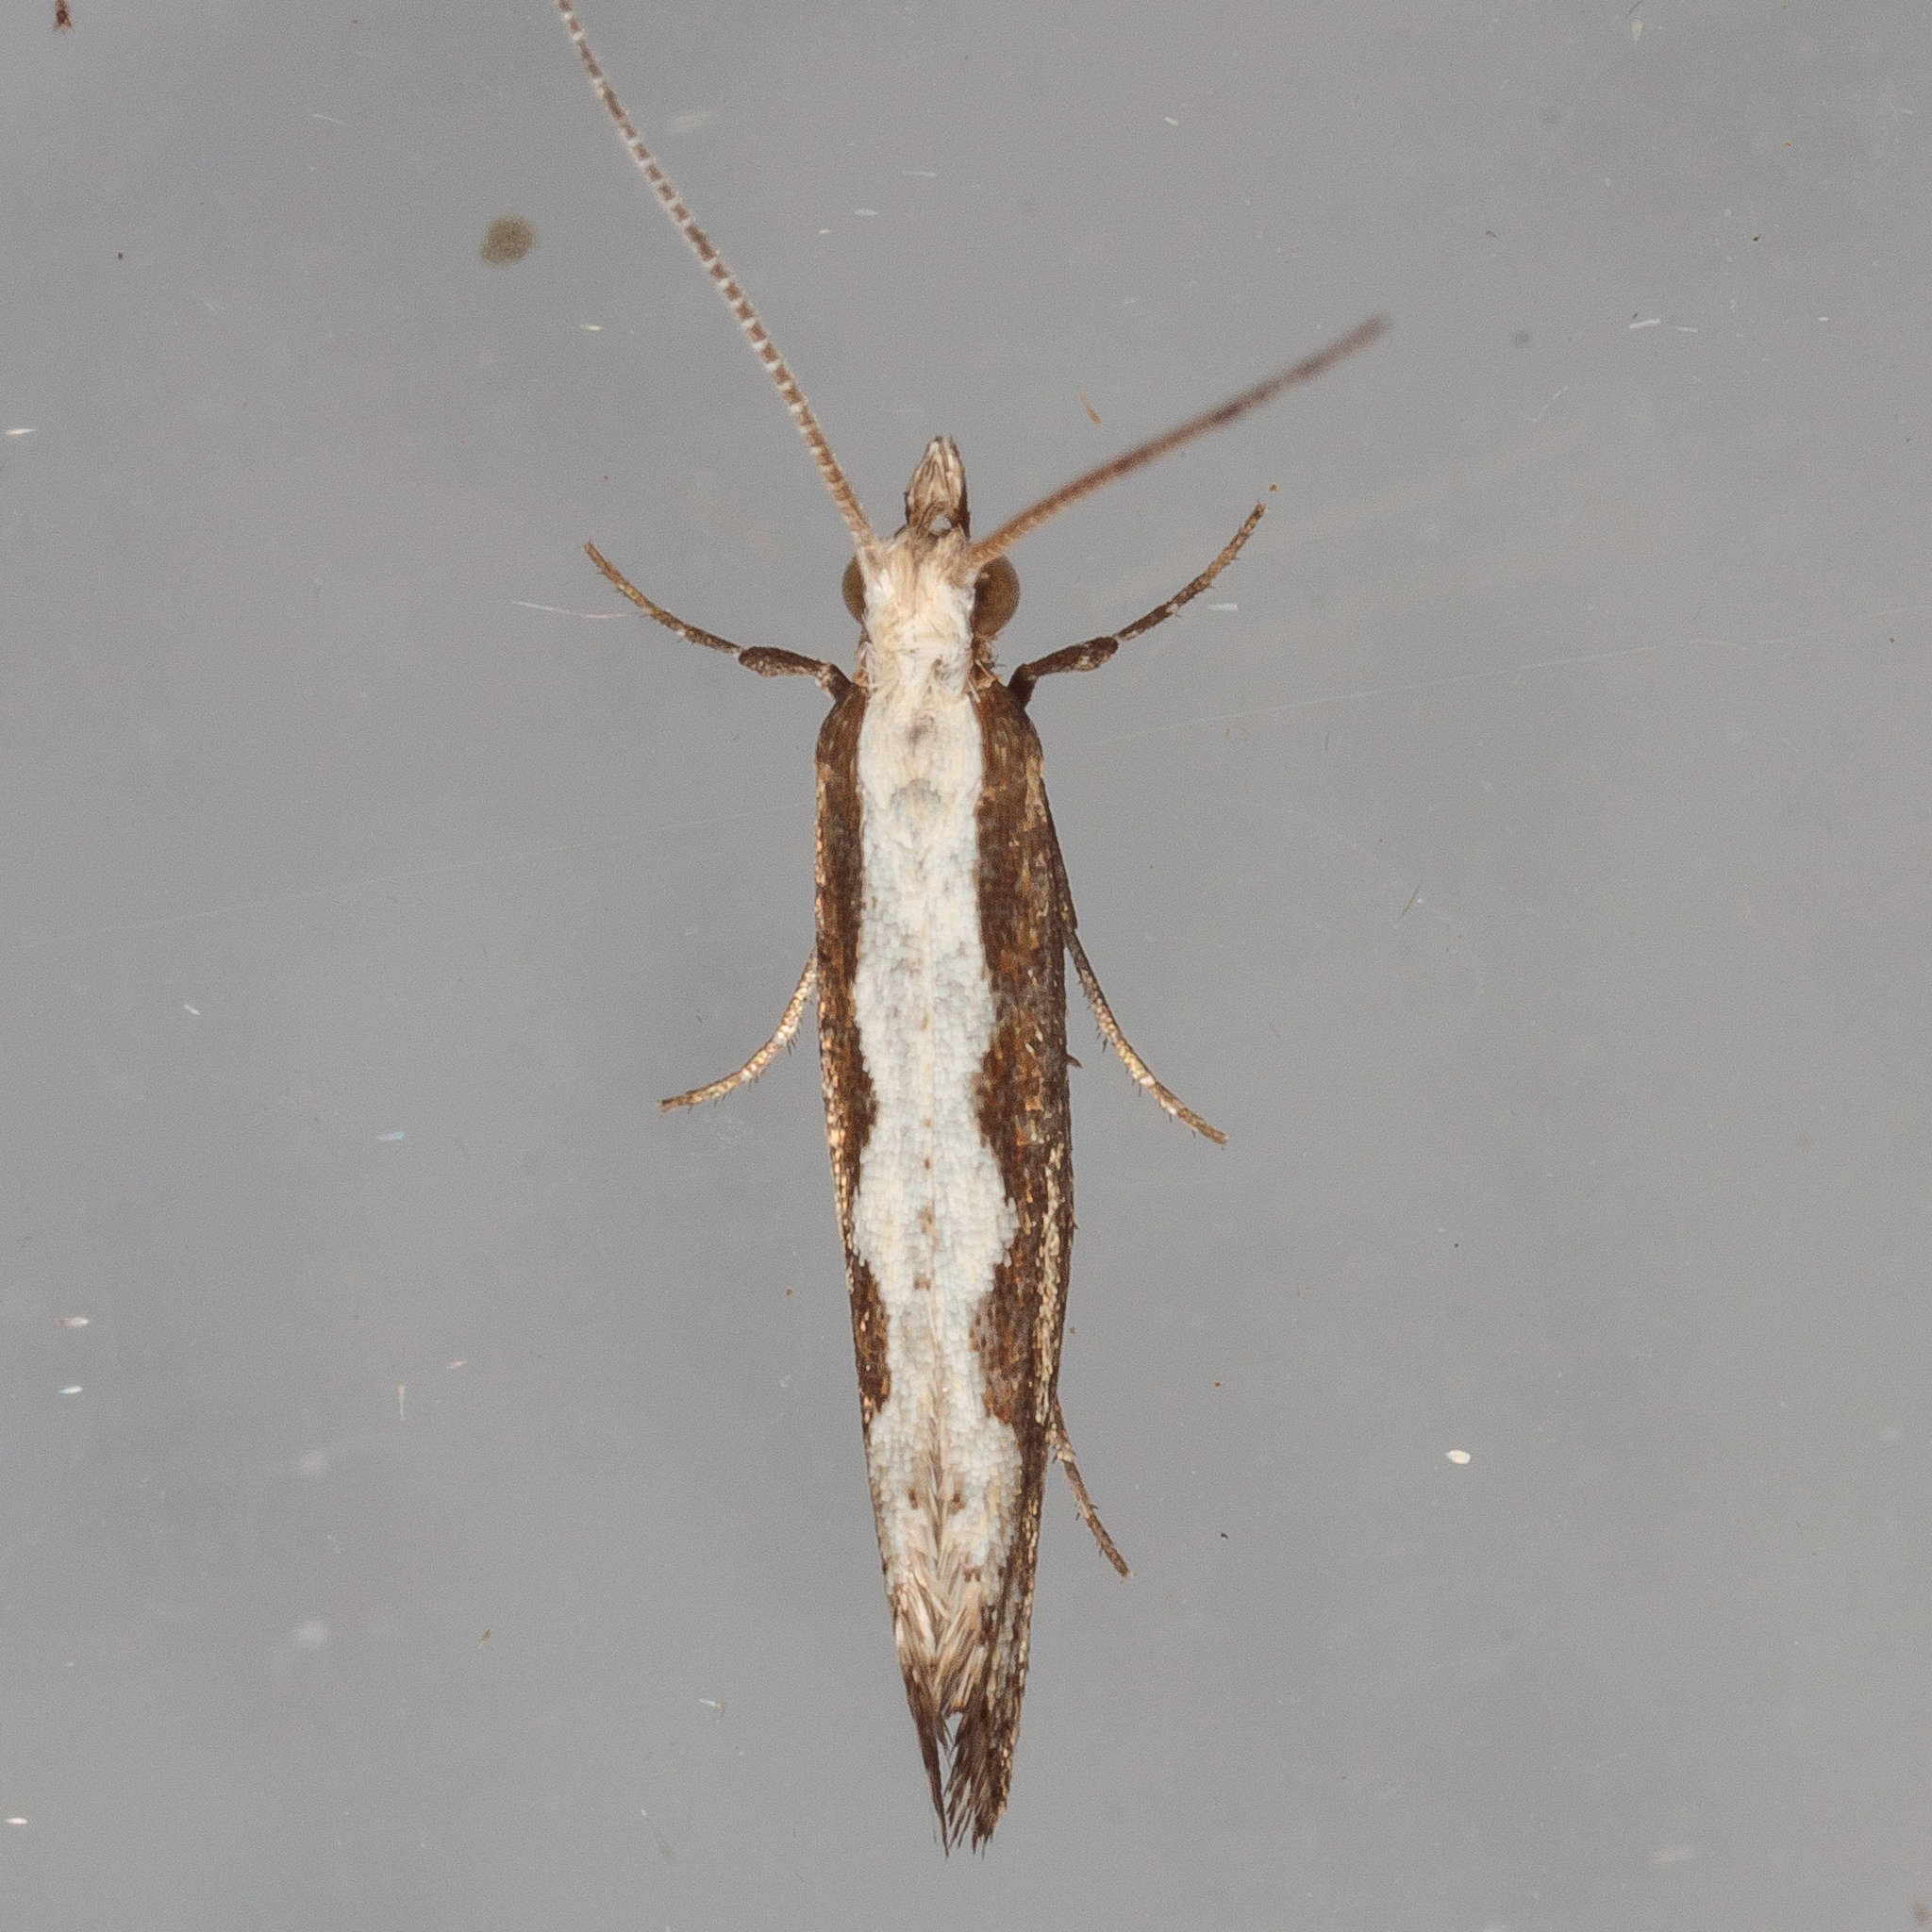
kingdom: Animalia
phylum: Arthropoda
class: Insecta
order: Lepidoptera
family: Plutellidae
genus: Plutella
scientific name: Plutella xylostella
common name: Diamond-back moth
